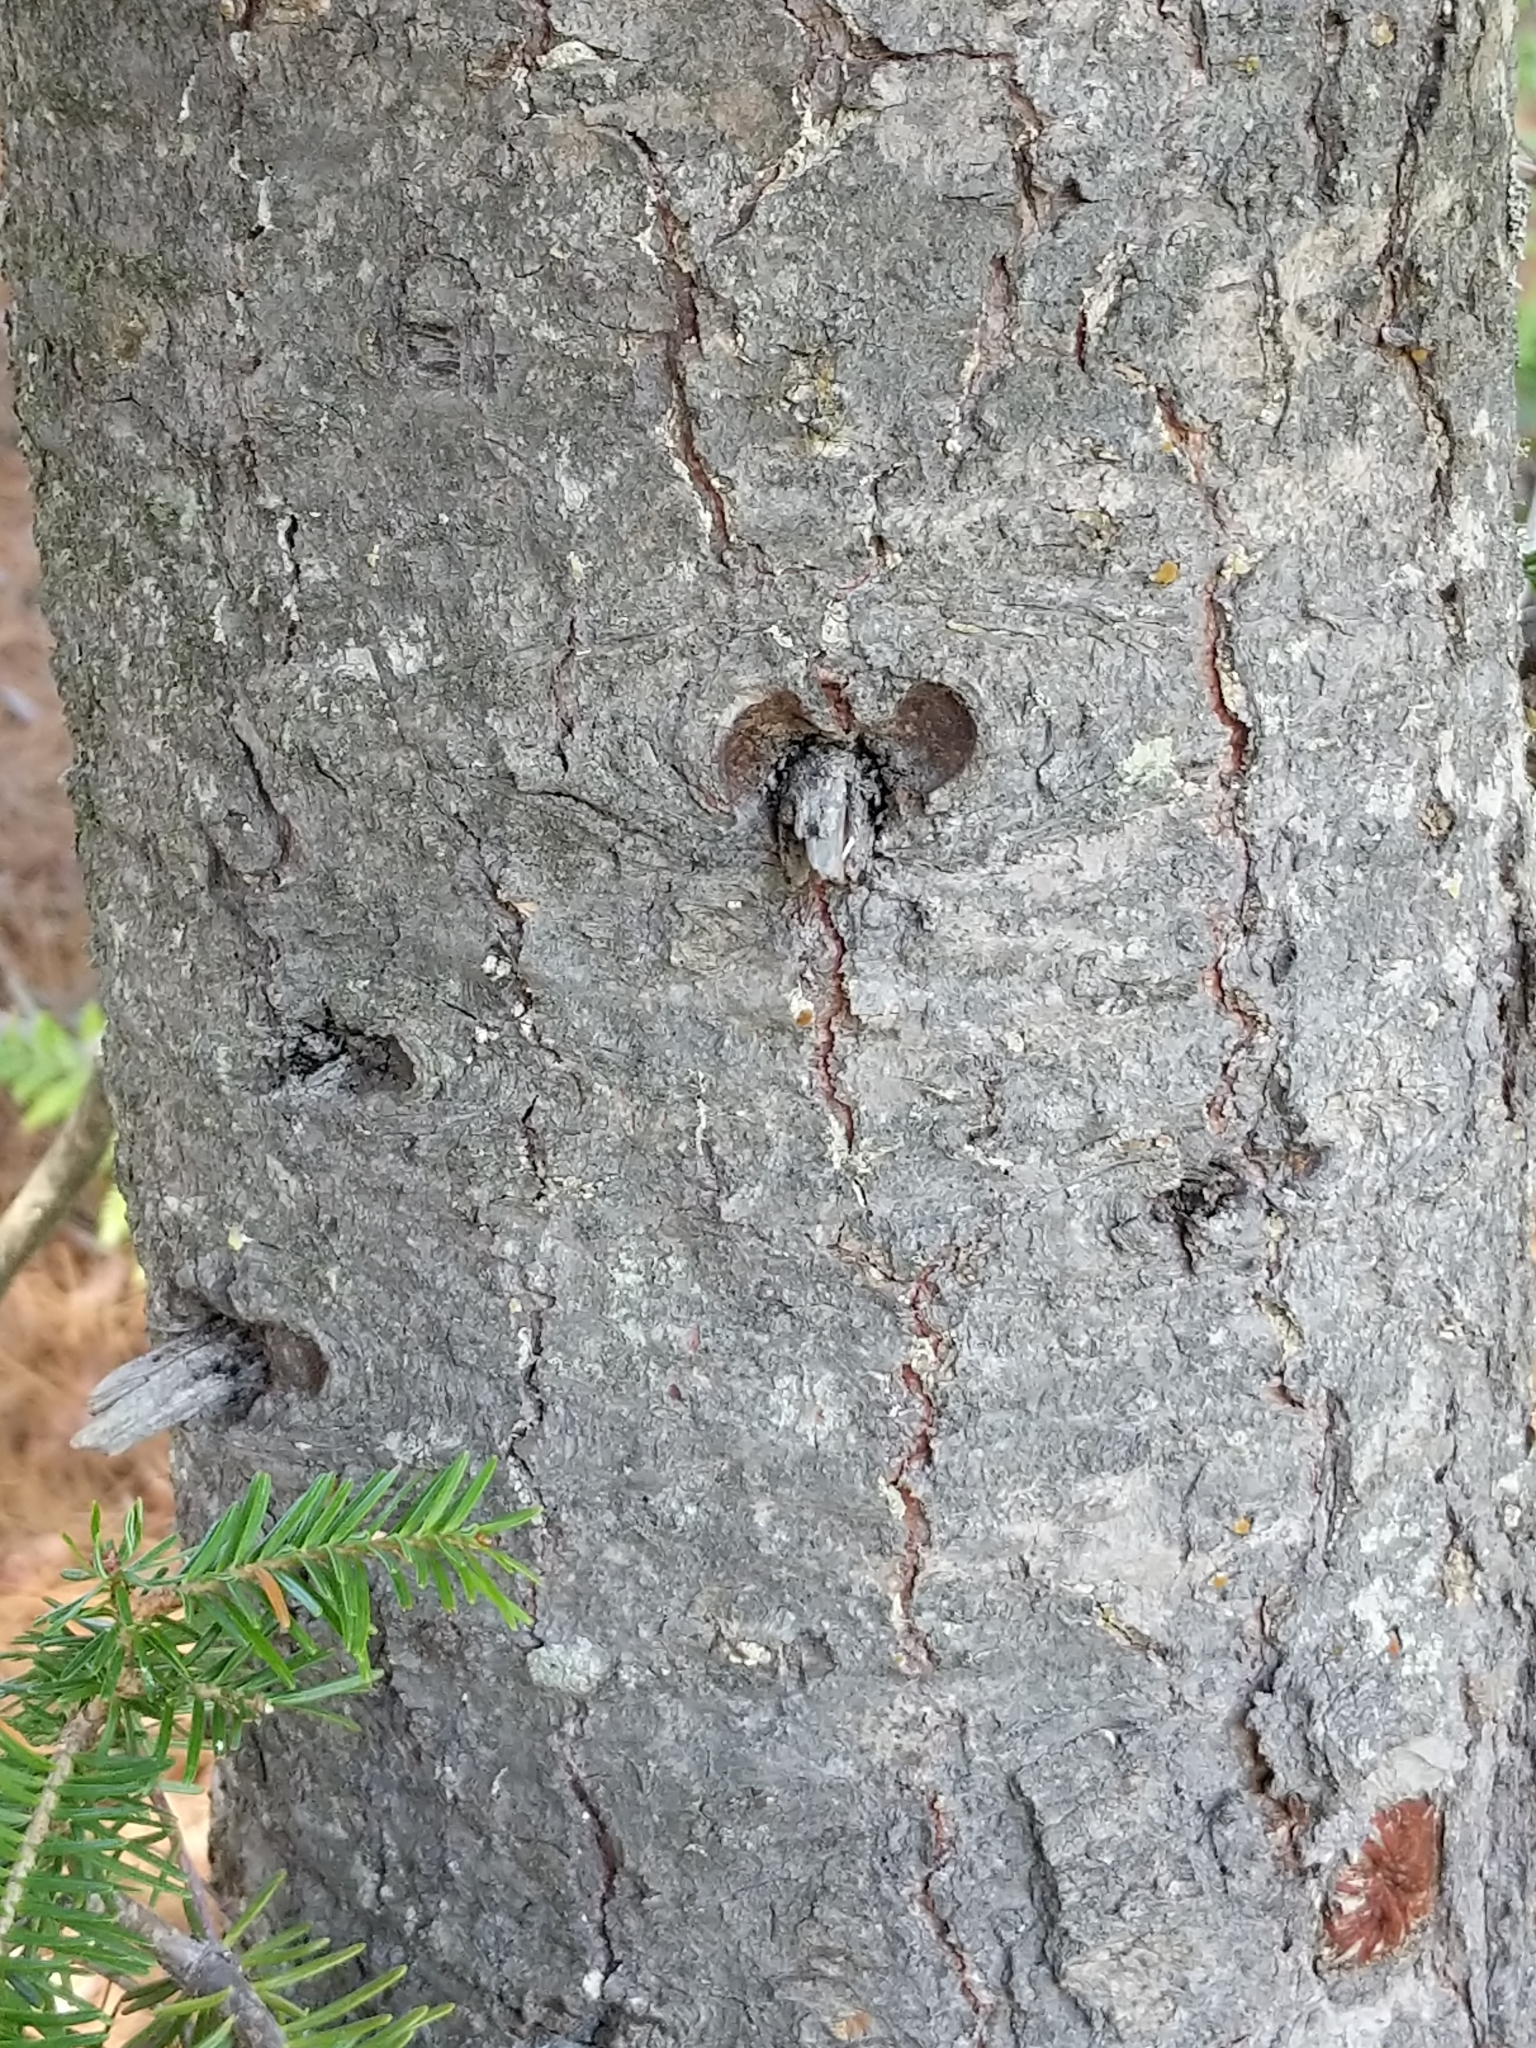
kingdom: Plantae
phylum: Tracheophyta
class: Pinopsida
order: Pinales
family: Pinaceae
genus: Abies
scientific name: Abies balsamea
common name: Balsam fir
